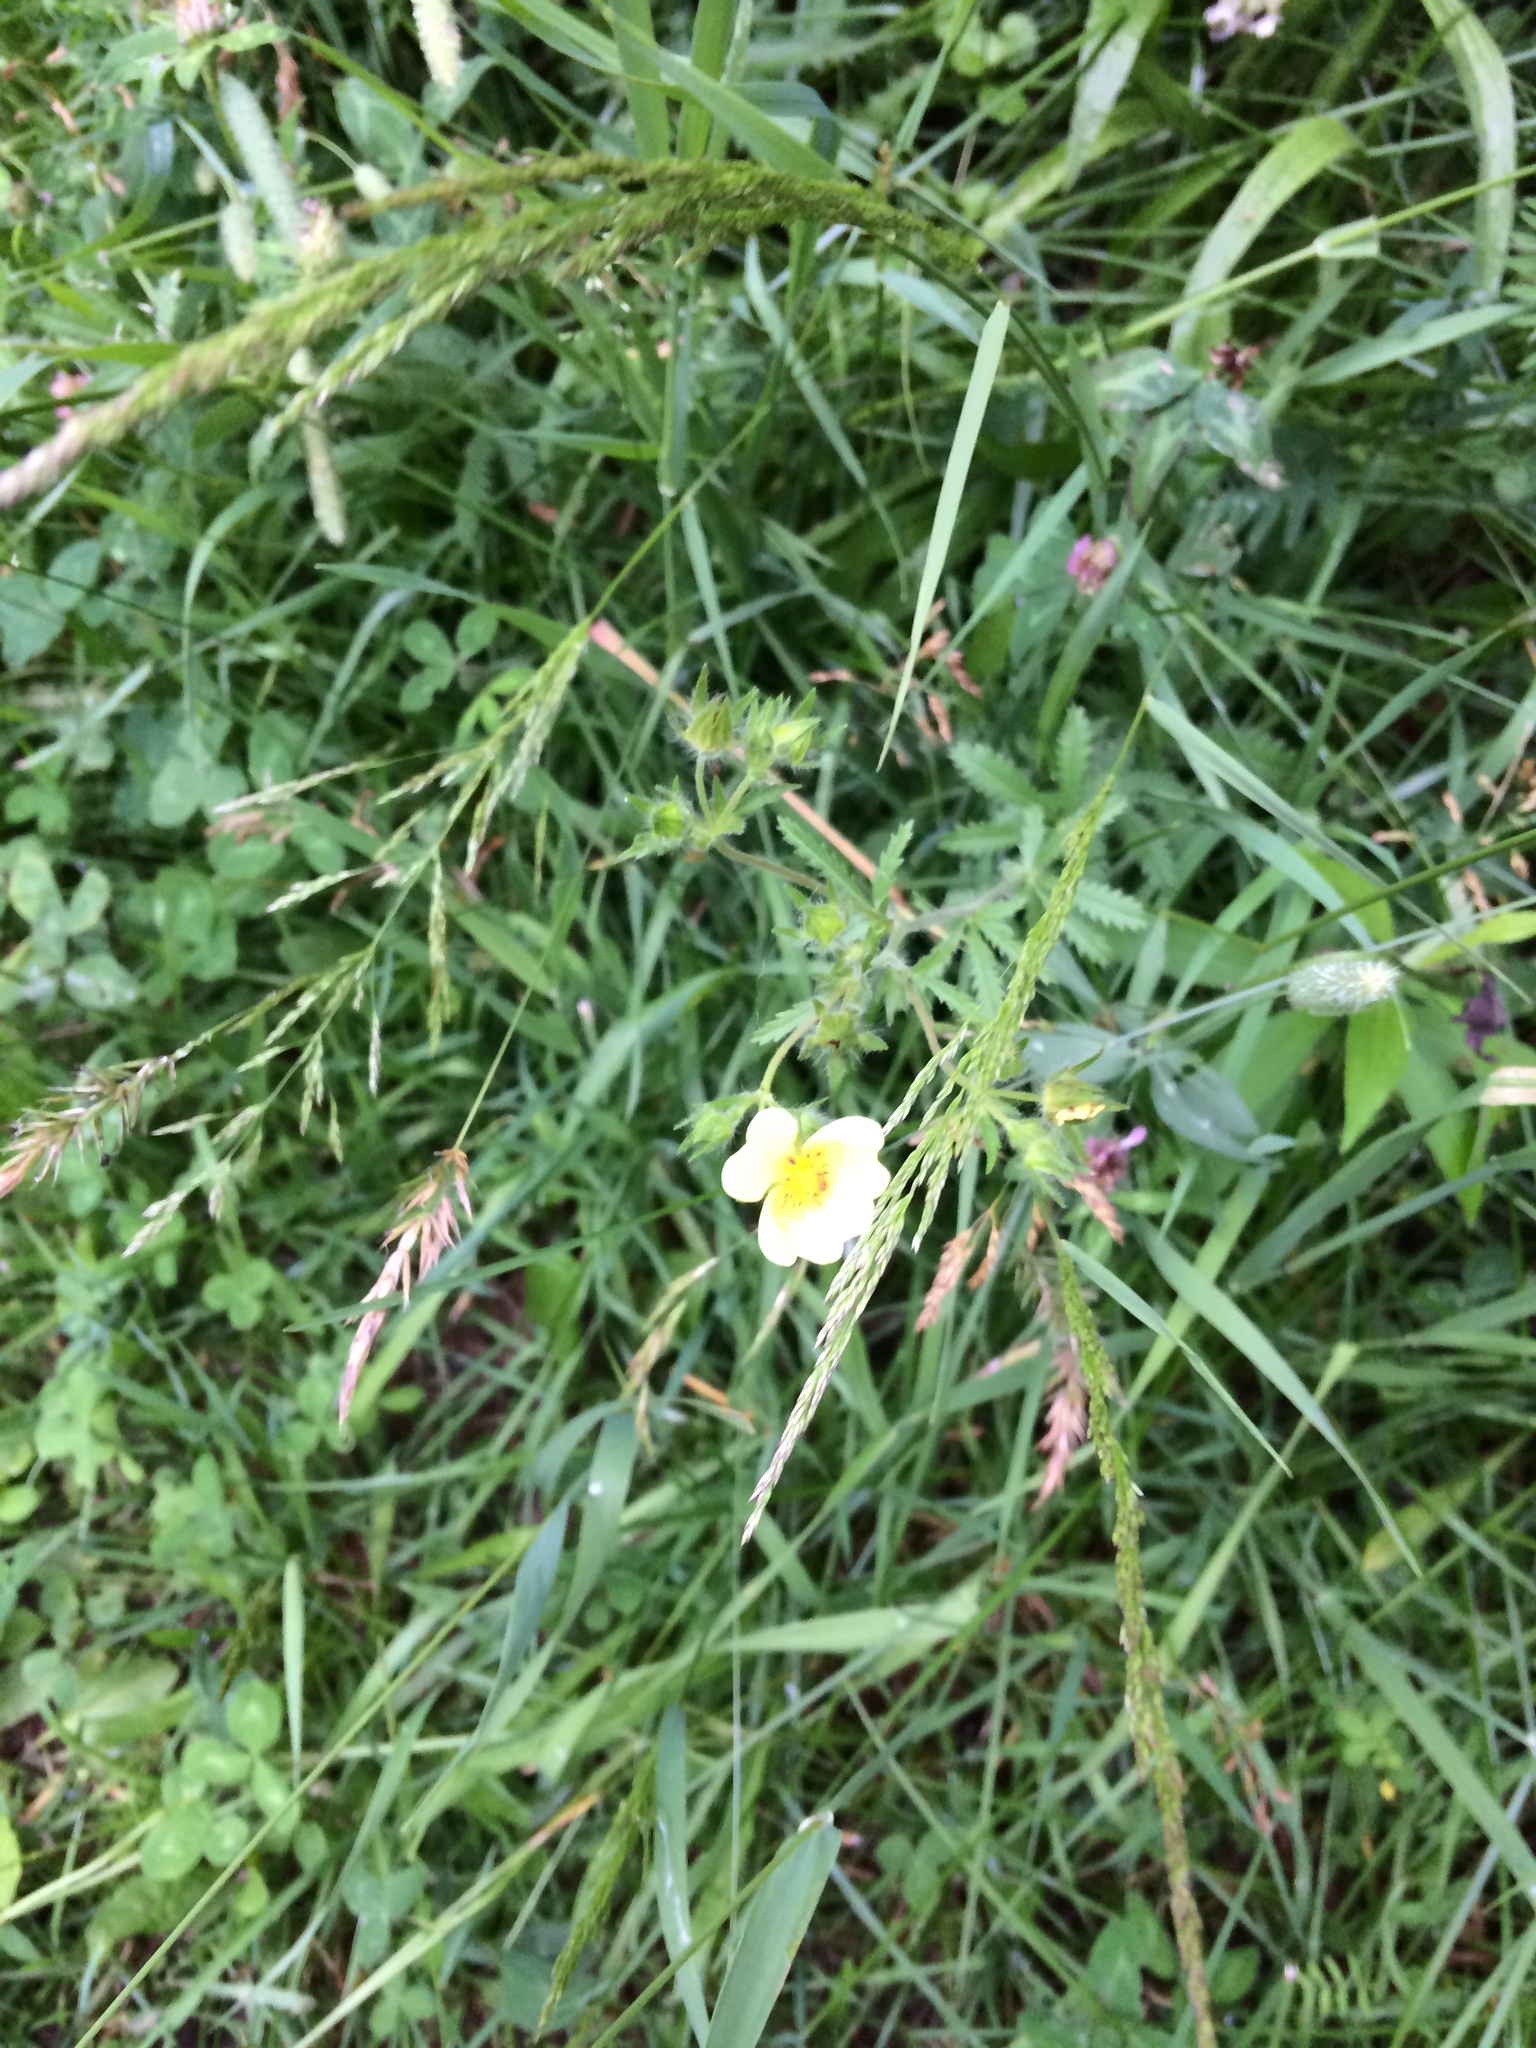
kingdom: Plantae
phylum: Tracheophyta
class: Magnoliopsida
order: Rosales
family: Rosaceae
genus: Potentilla
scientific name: Potentilla recta
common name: Sulphur cinquefoil
